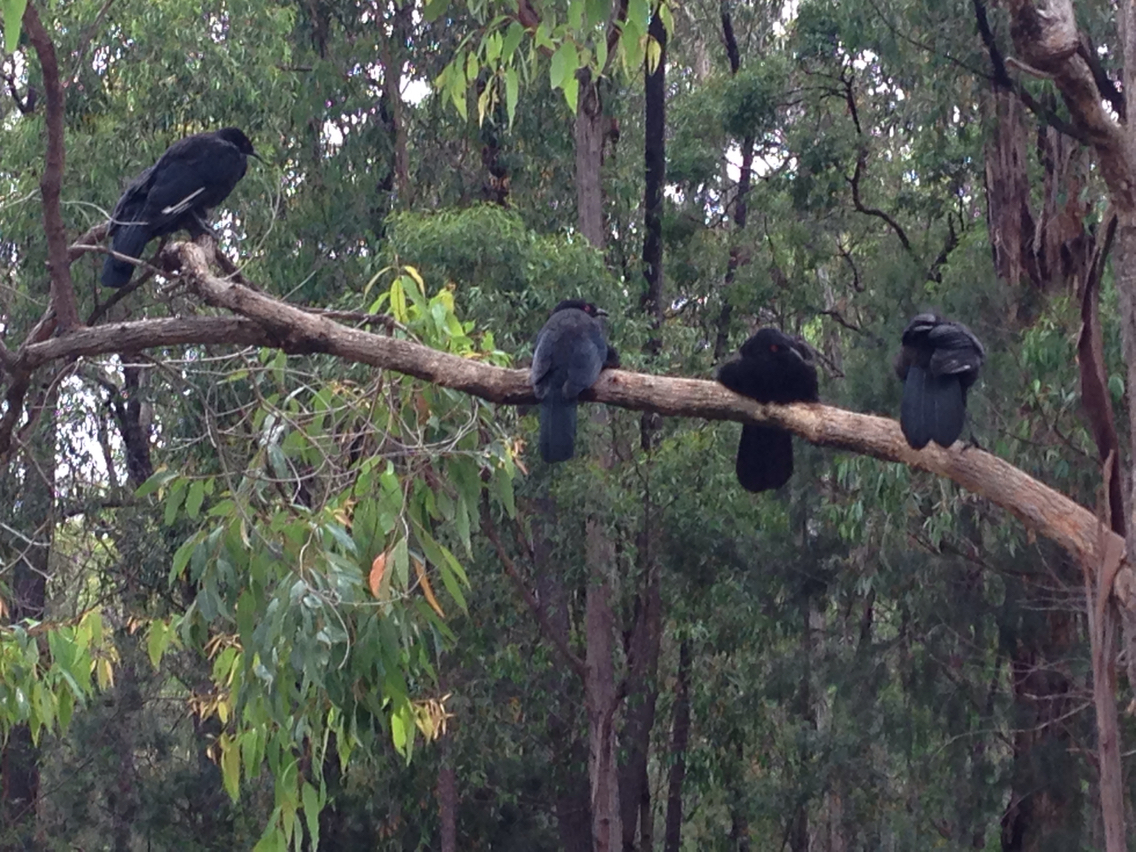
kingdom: Animalia
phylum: Chordata
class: Aves
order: Passeriformes
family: Corcoracidae
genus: Corcorax
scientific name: Corcorax melanoramphos
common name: White-winged chough
